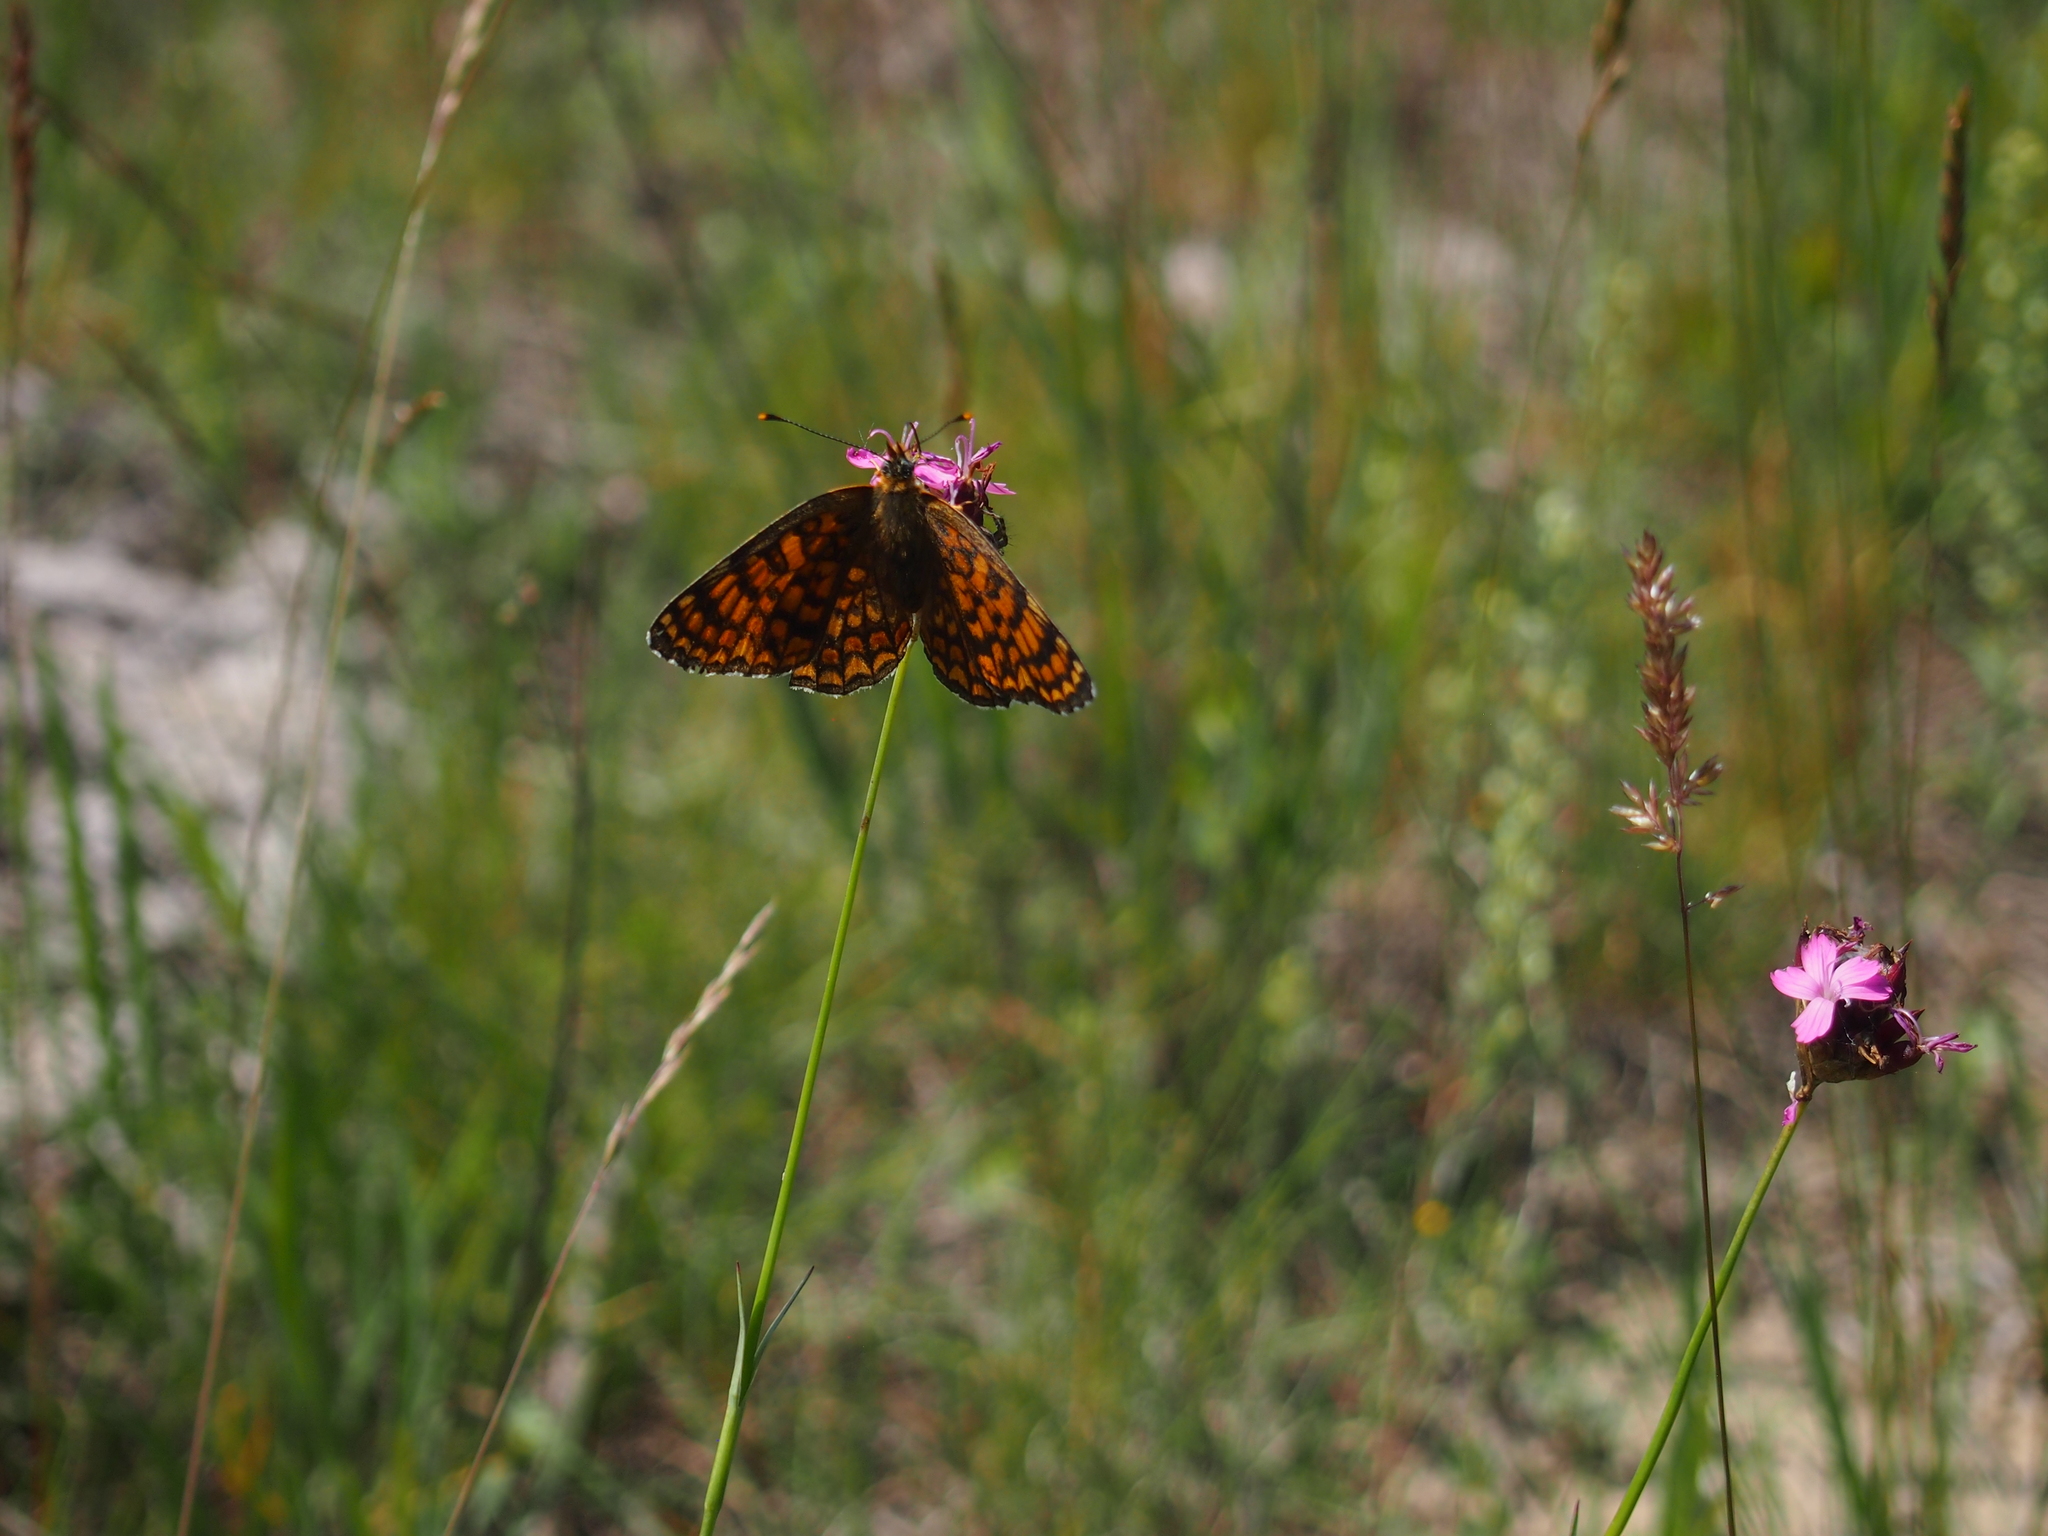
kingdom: Animalia
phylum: Arthropoda
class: Insecta
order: Lepidoptera
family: Nymphalidae
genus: Melitaea
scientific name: Melitaea phoebe
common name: Knapweed fritillary
